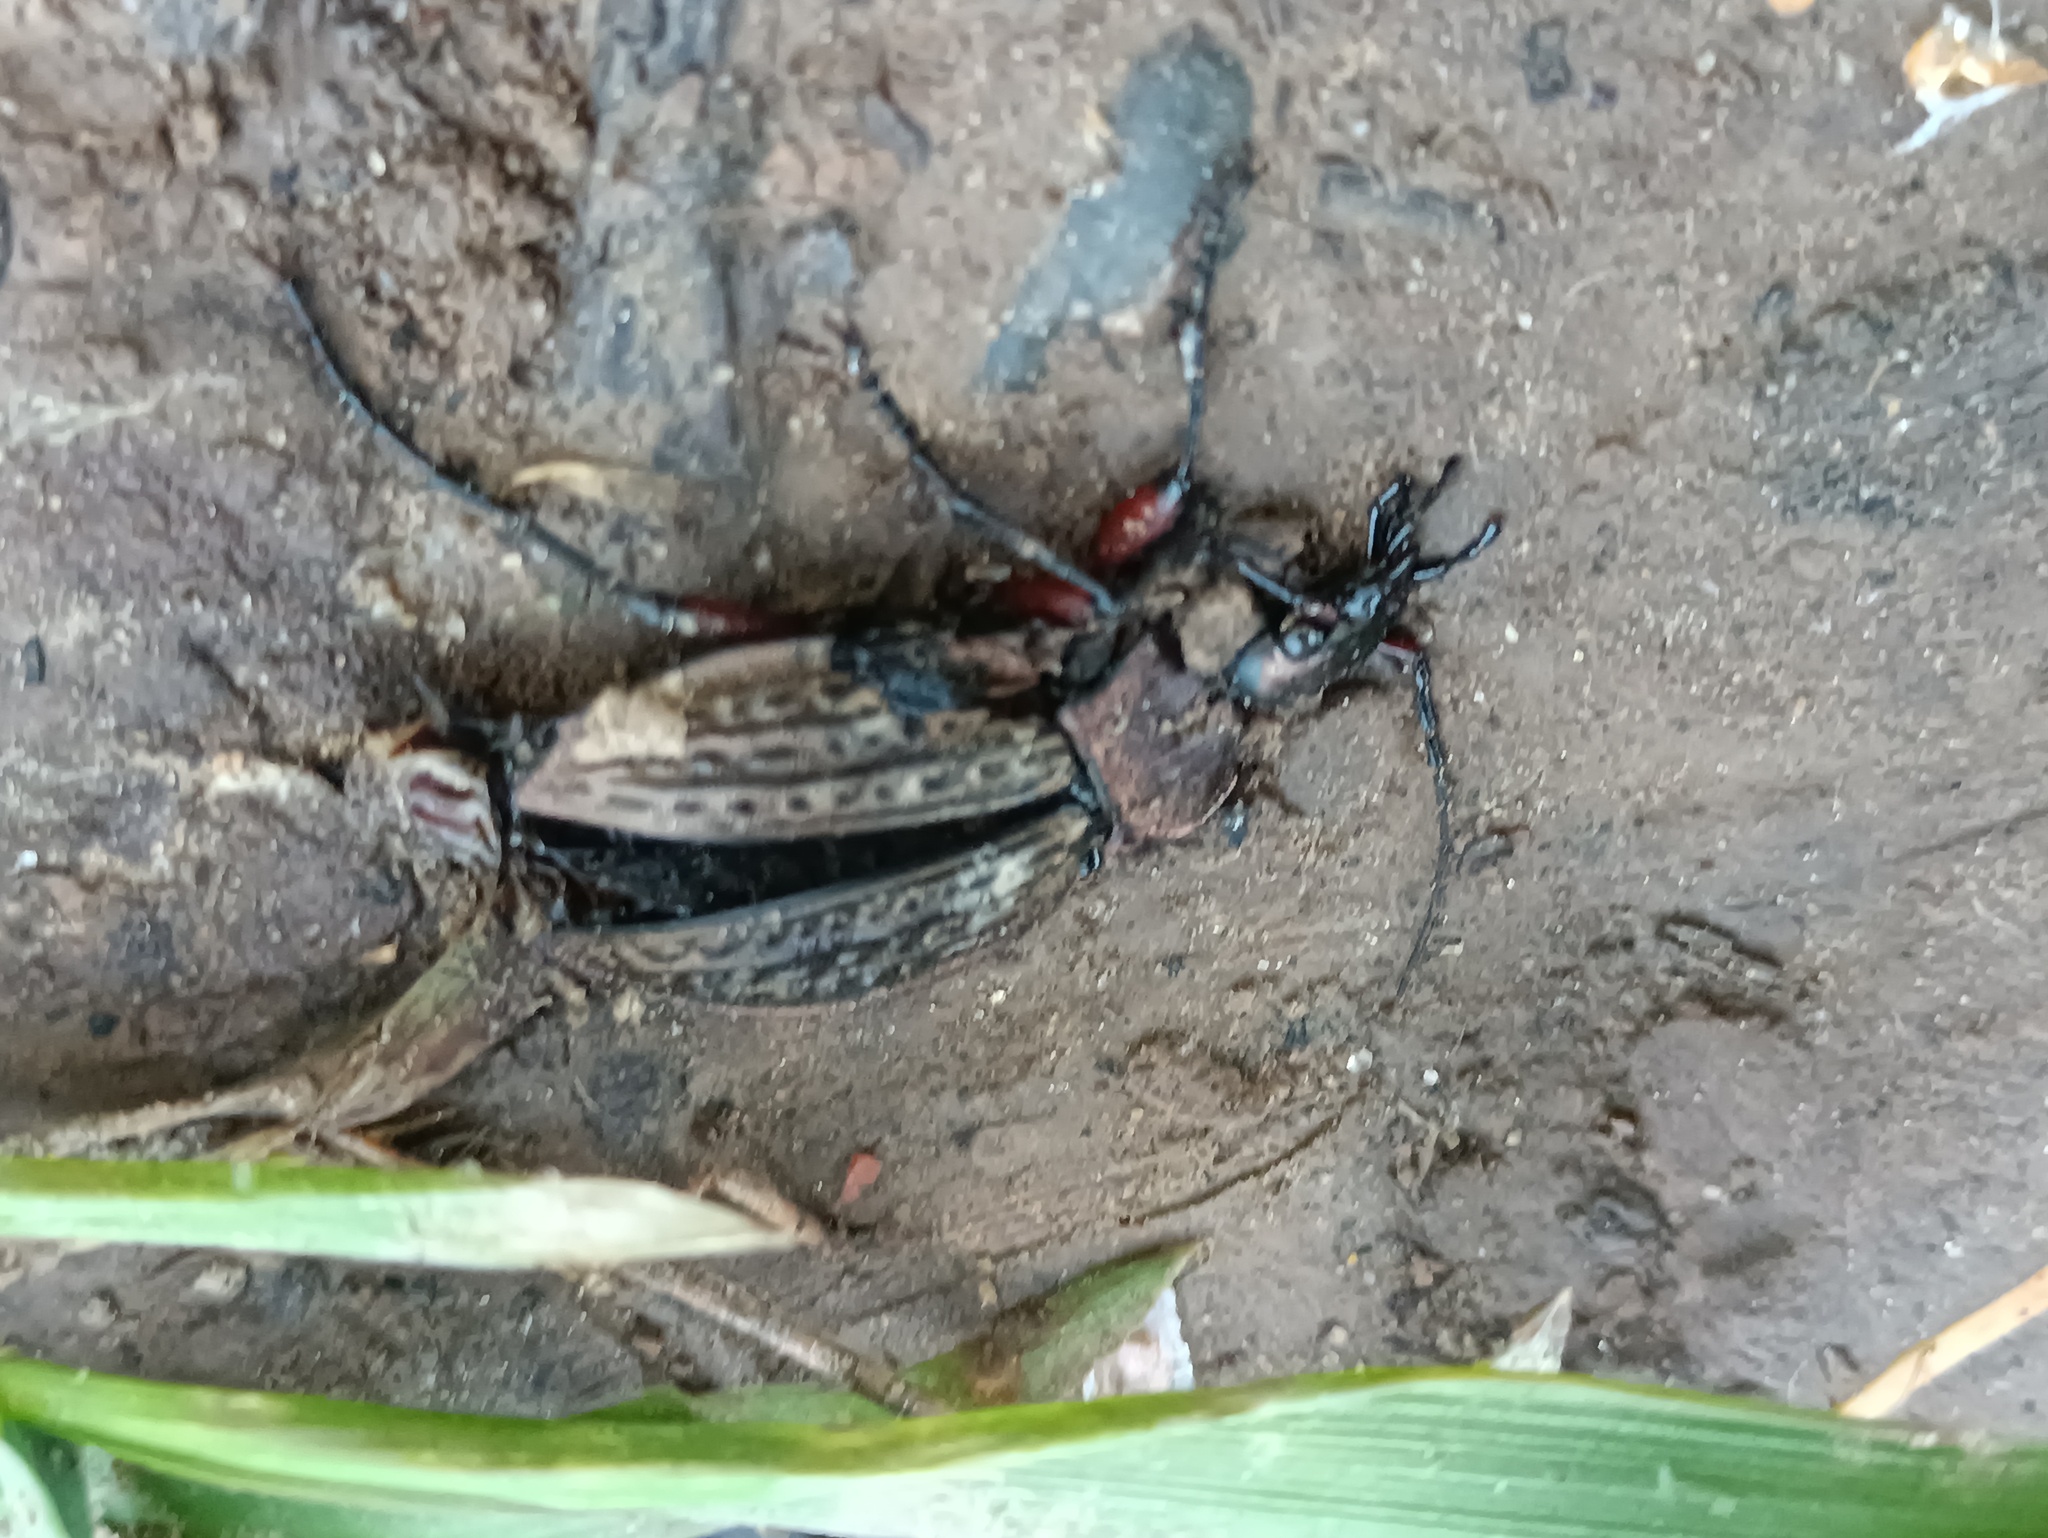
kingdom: Animalia
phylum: Arthropoda
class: Insecta
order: Coleoptera
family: Carabidae
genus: Carabus
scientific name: Carabus cancellatus
